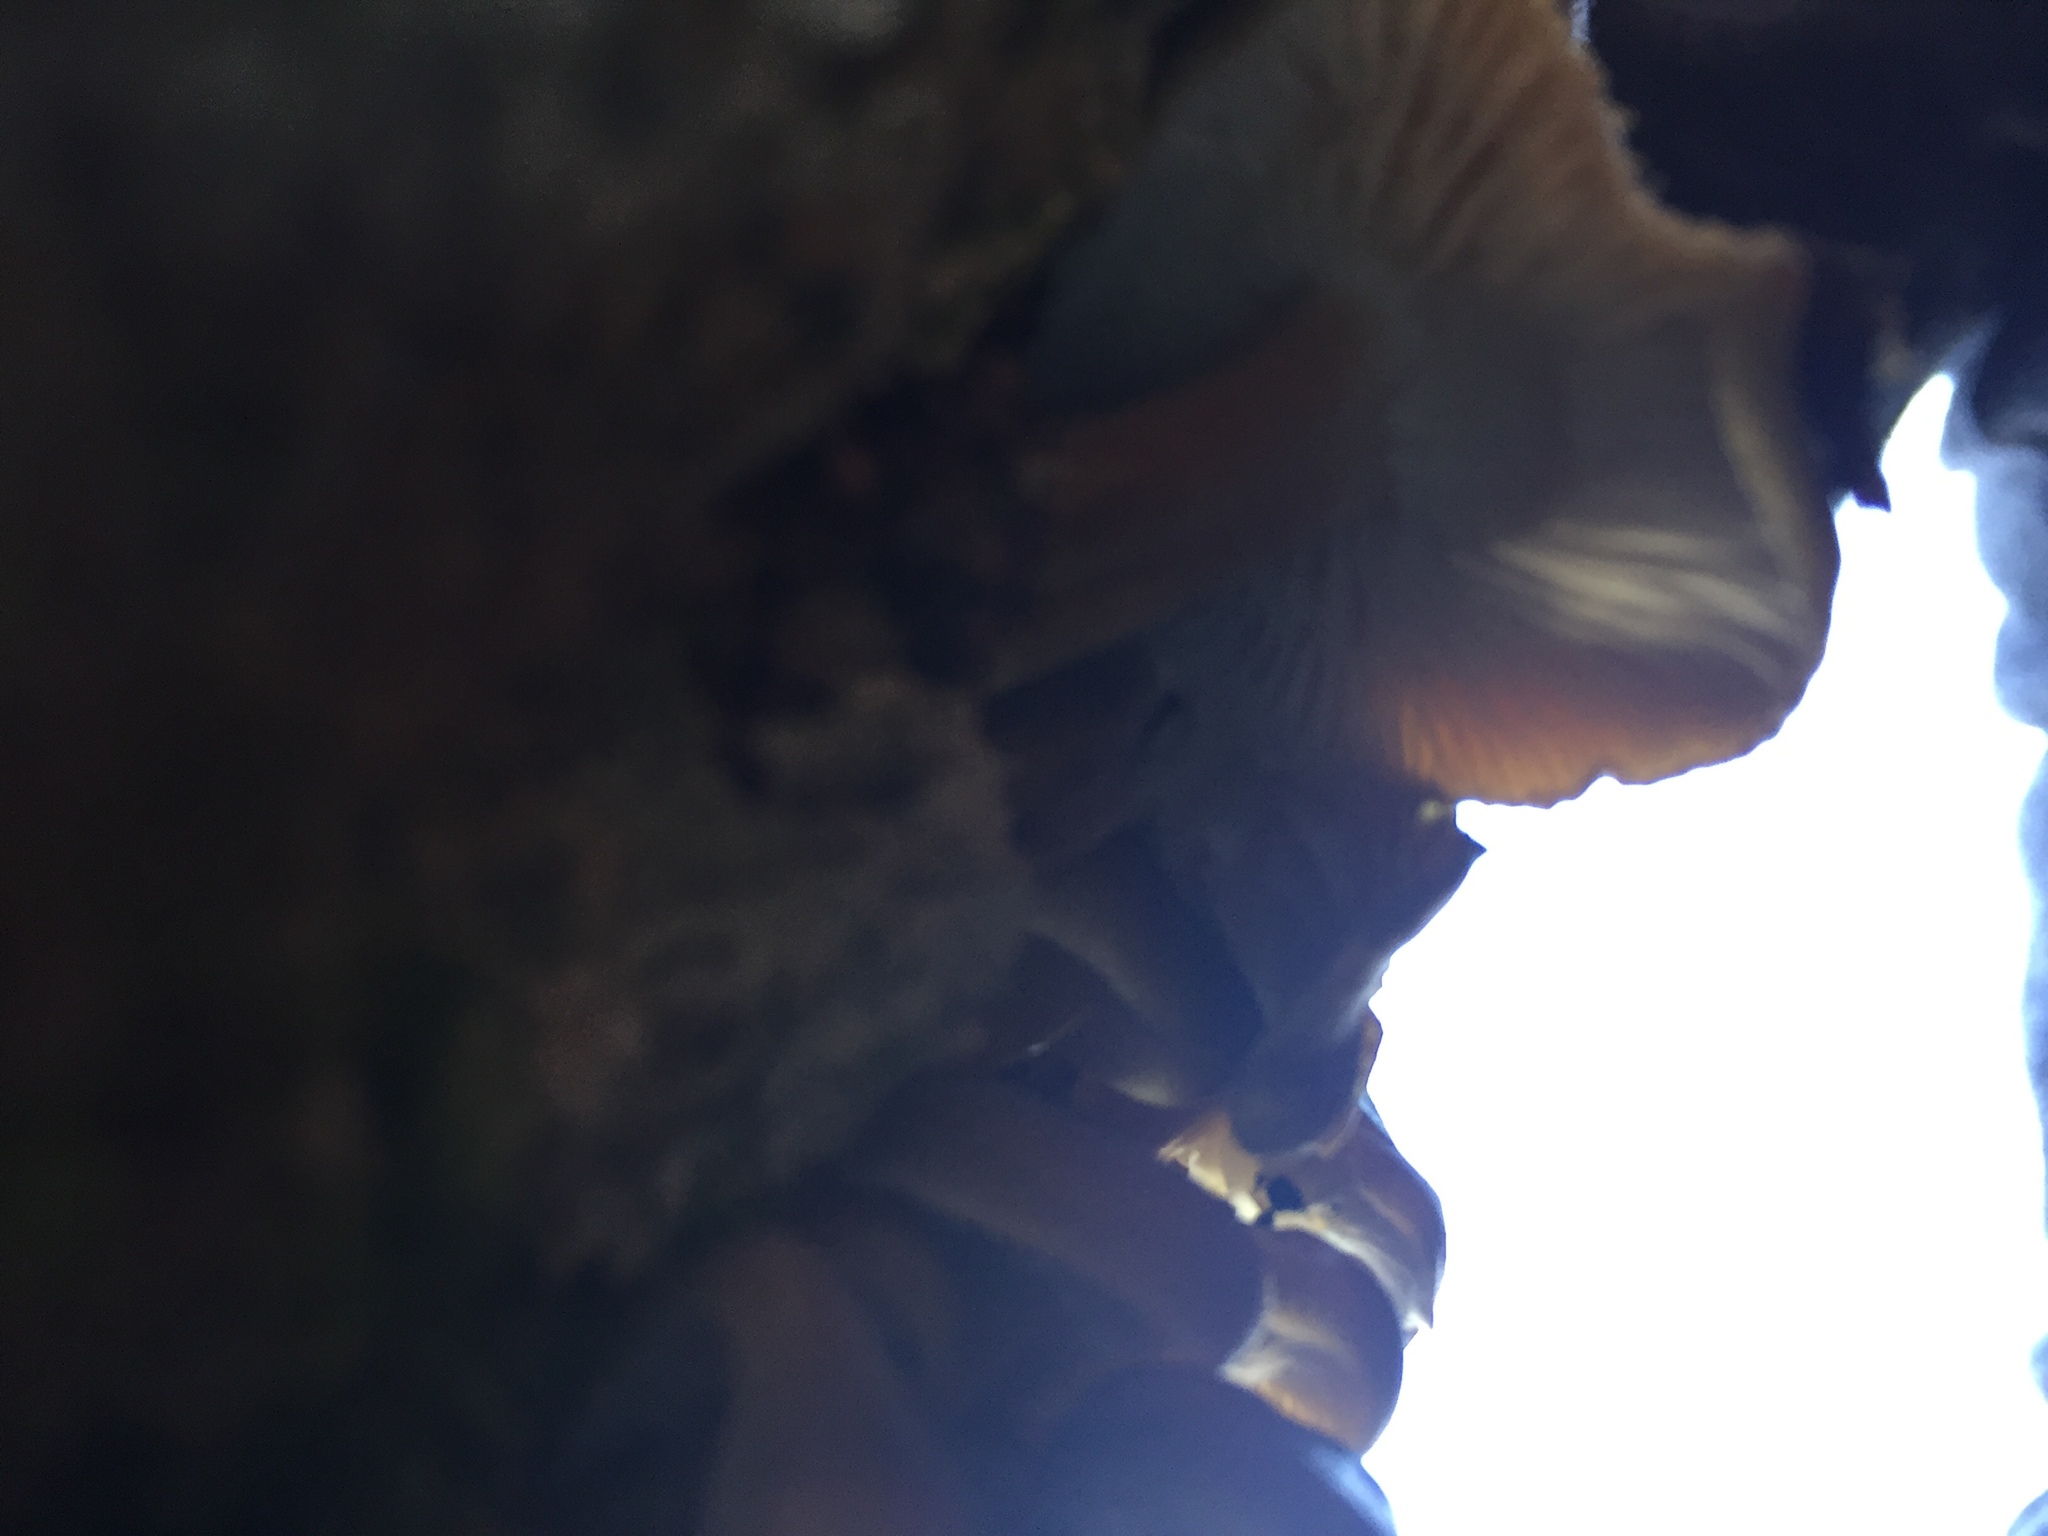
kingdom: Fungi
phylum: Basidiomycota
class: Agaricomycetes
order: Agaricales
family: Physalacriaceae
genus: Flammulina
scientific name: Flammulina velutipes
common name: Velvet shank
